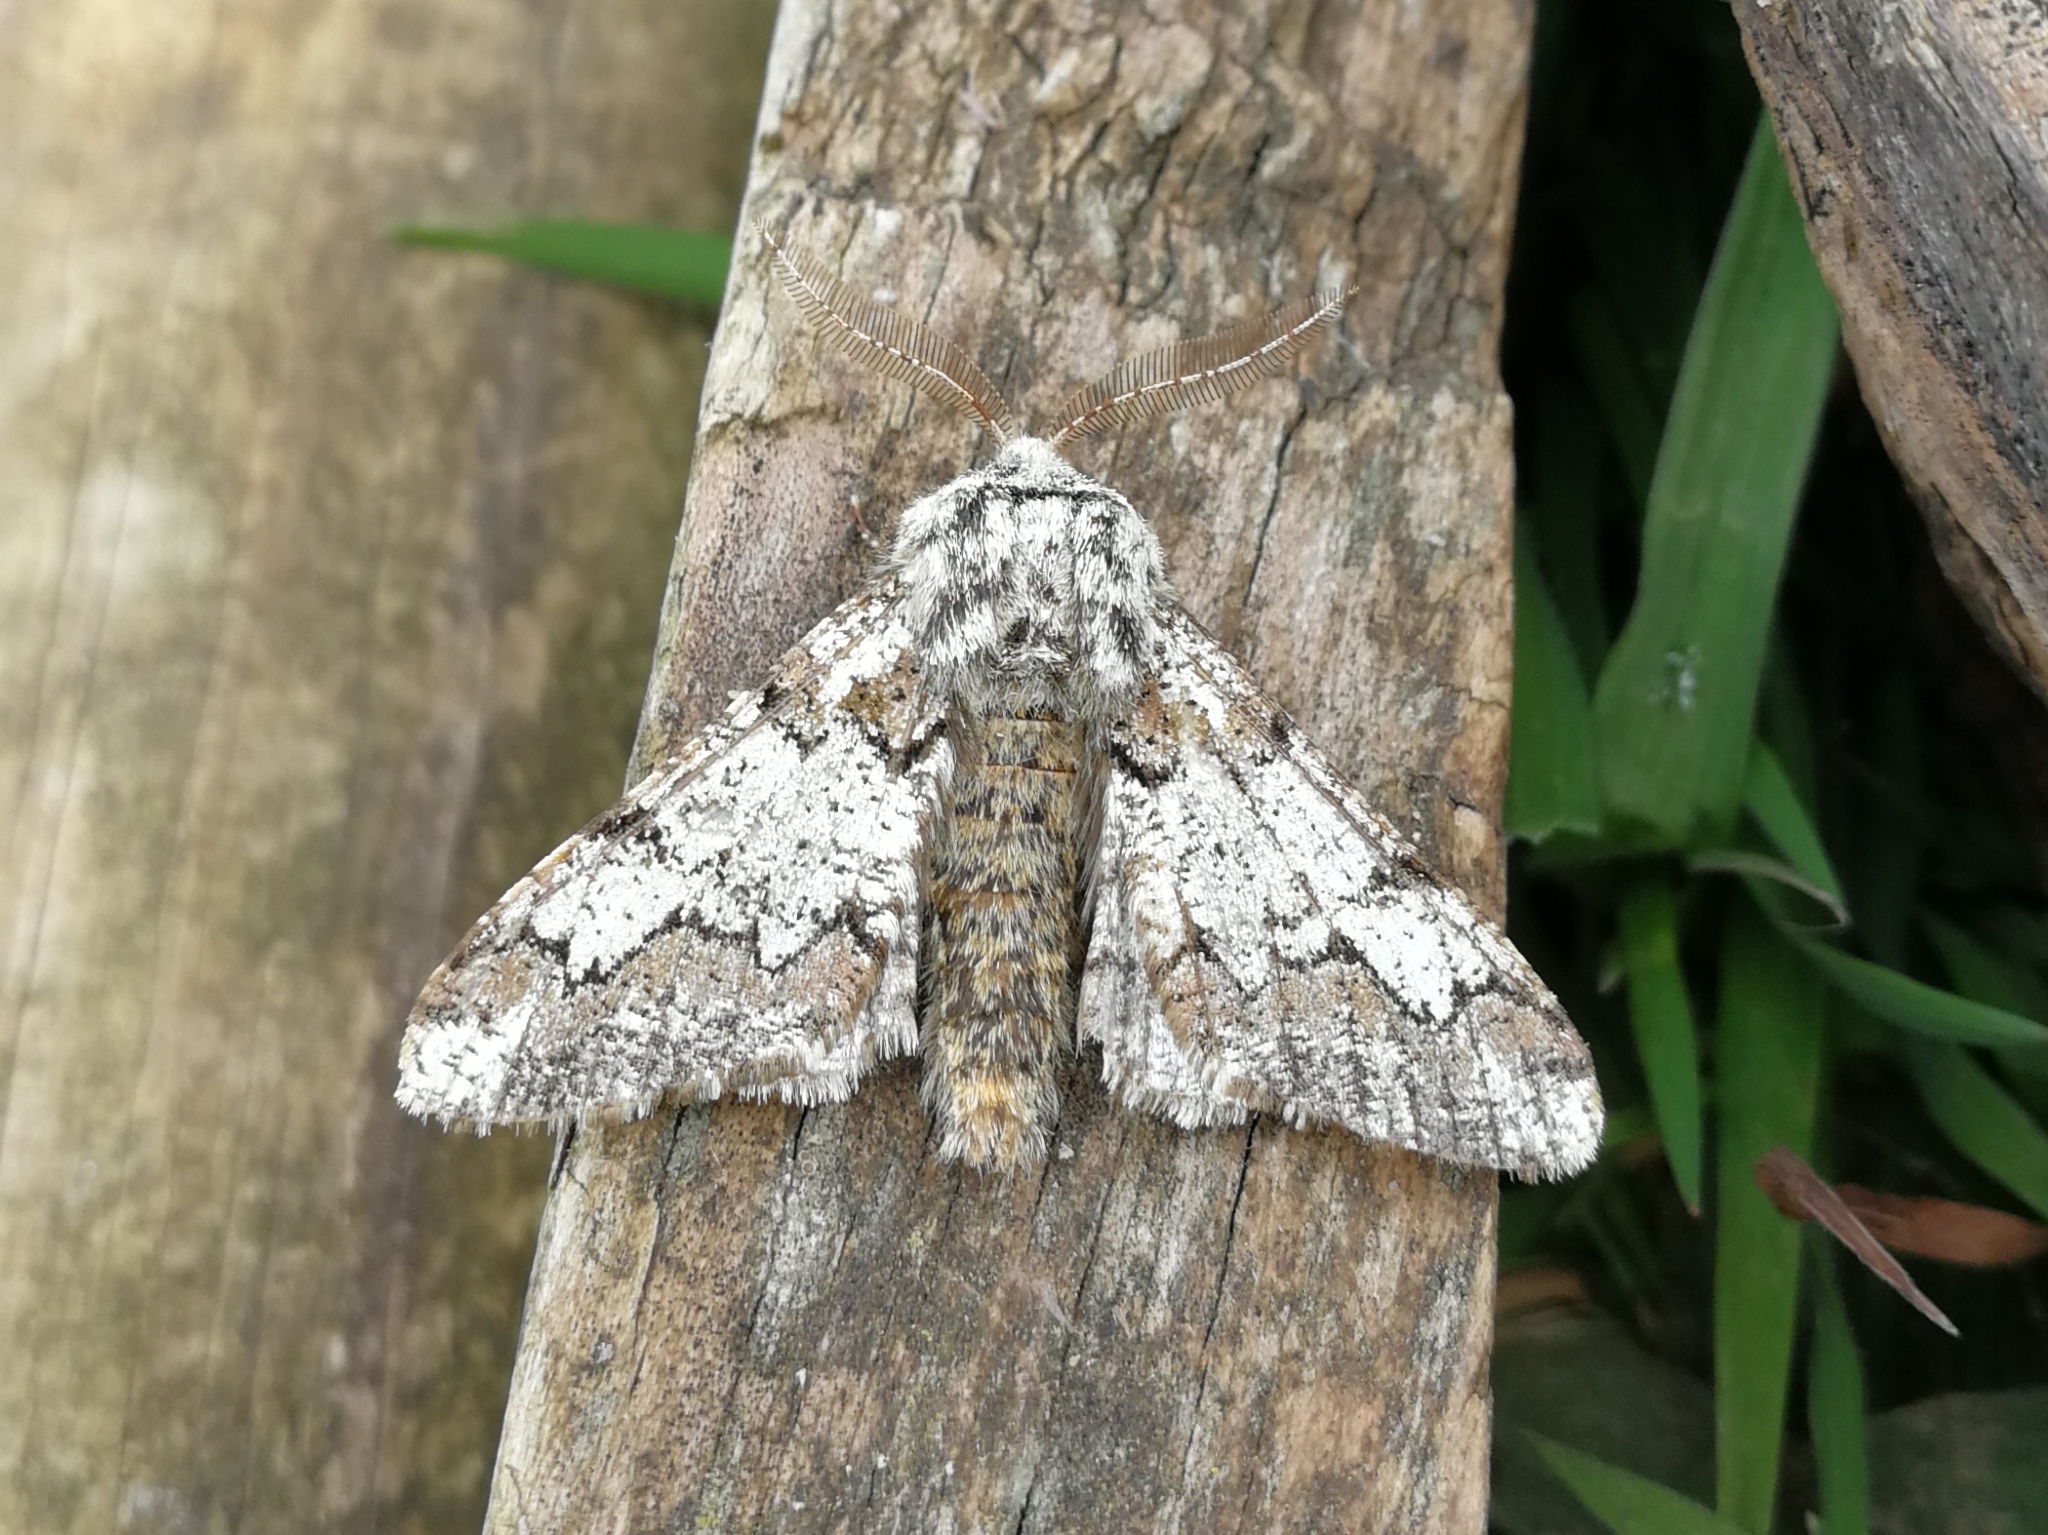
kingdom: Animalia
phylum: Arthropoda
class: Insecta
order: Lepidoptera
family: Geometridae
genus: Biston
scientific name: Biston strataria
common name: Oak beauty
